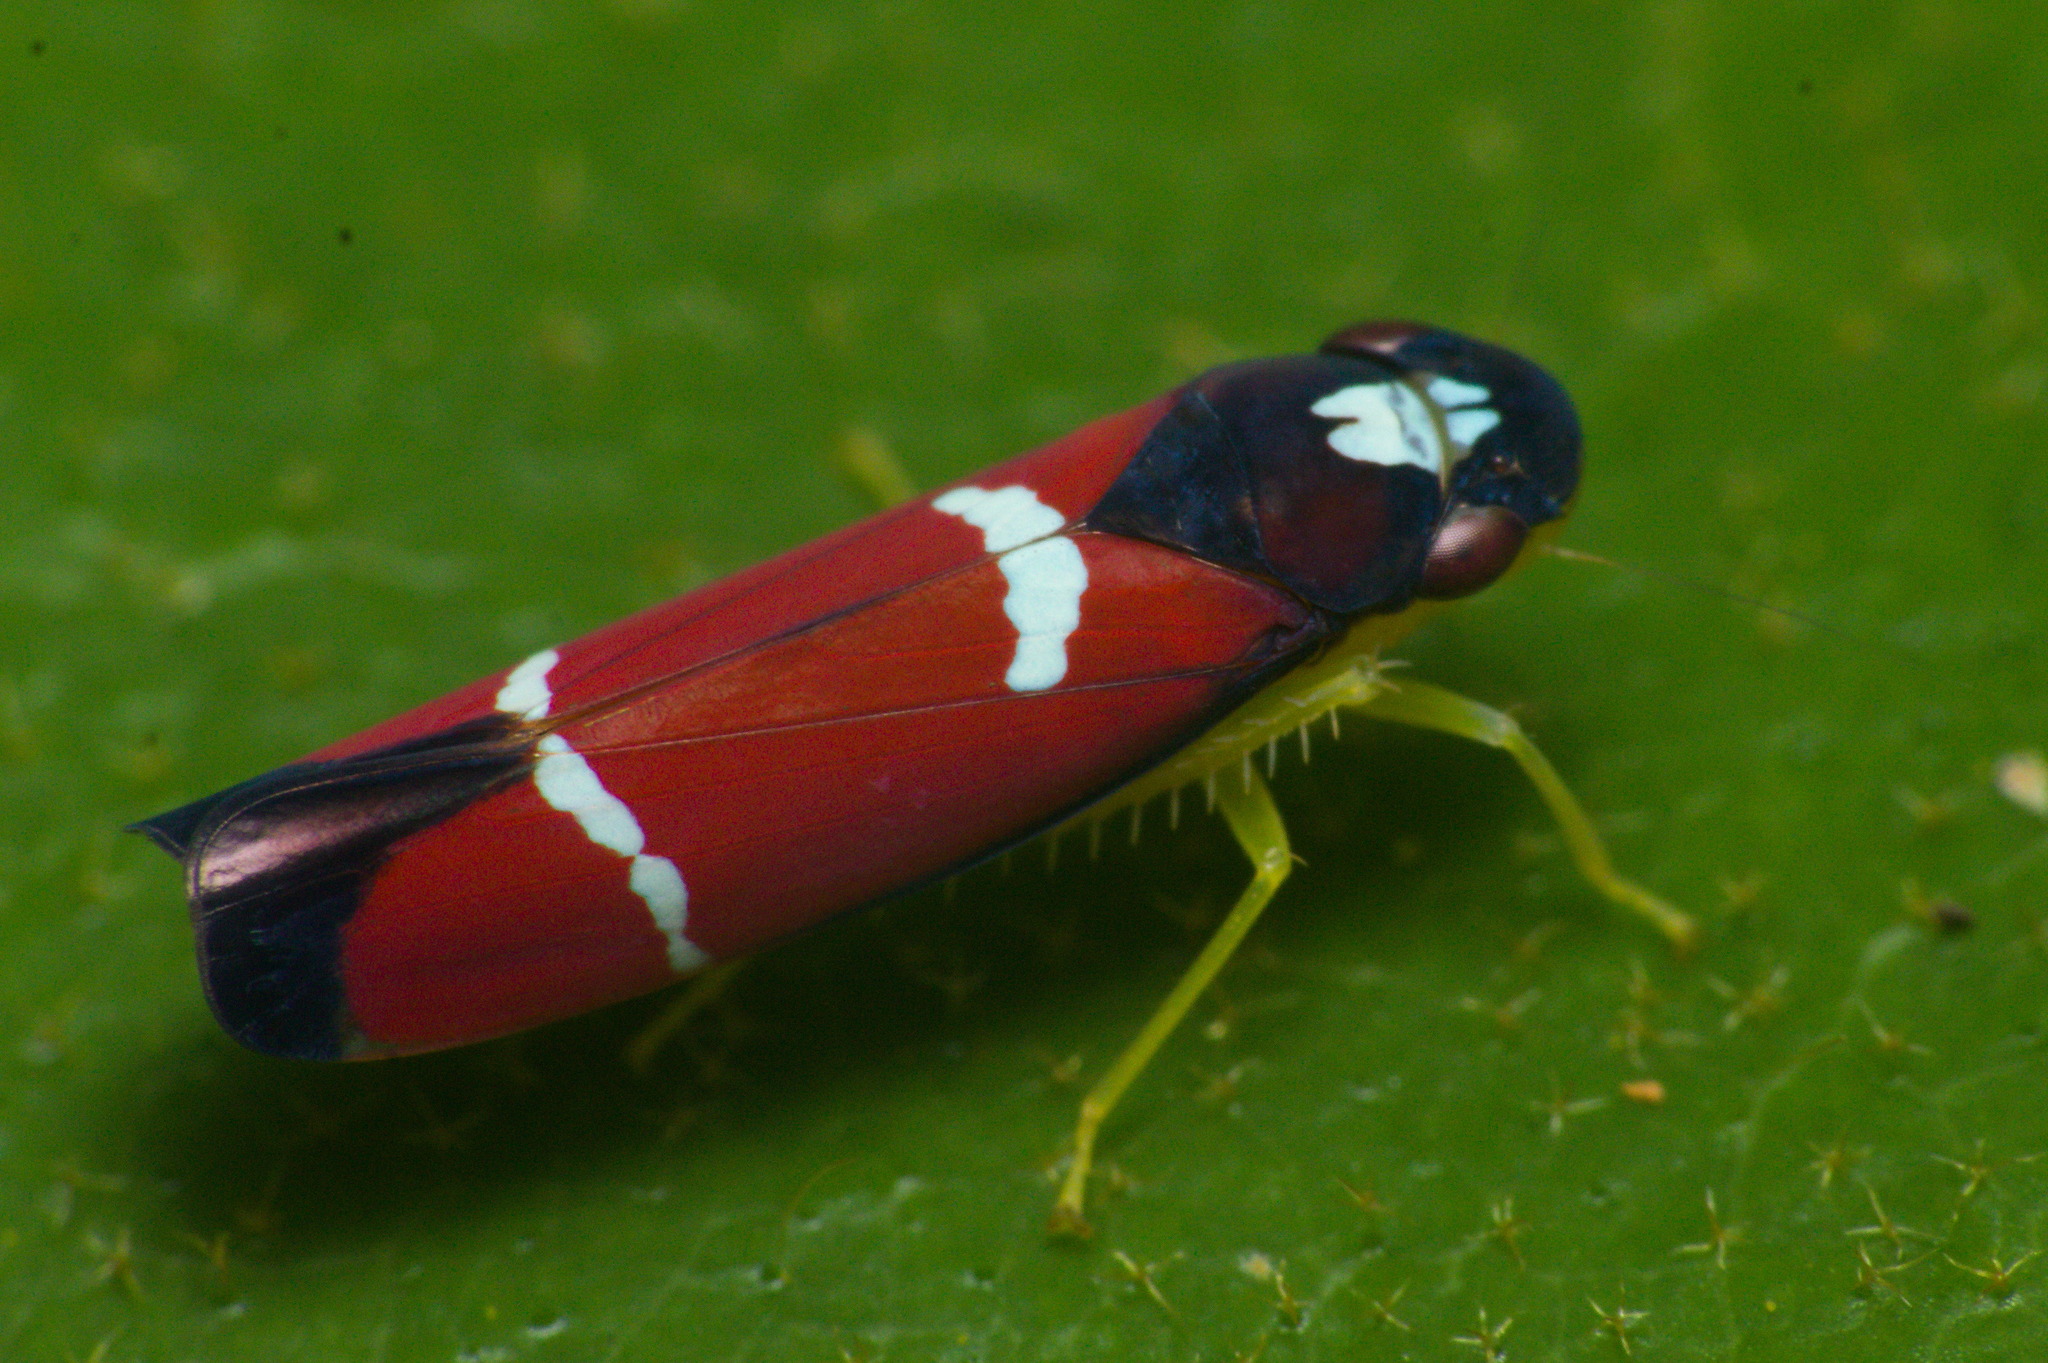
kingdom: Animalia
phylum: Arthropoda
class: Insecta
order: Hemiptera
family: Cicadellidae
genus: Erythrogonia
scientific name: Erythrogonia excisa
